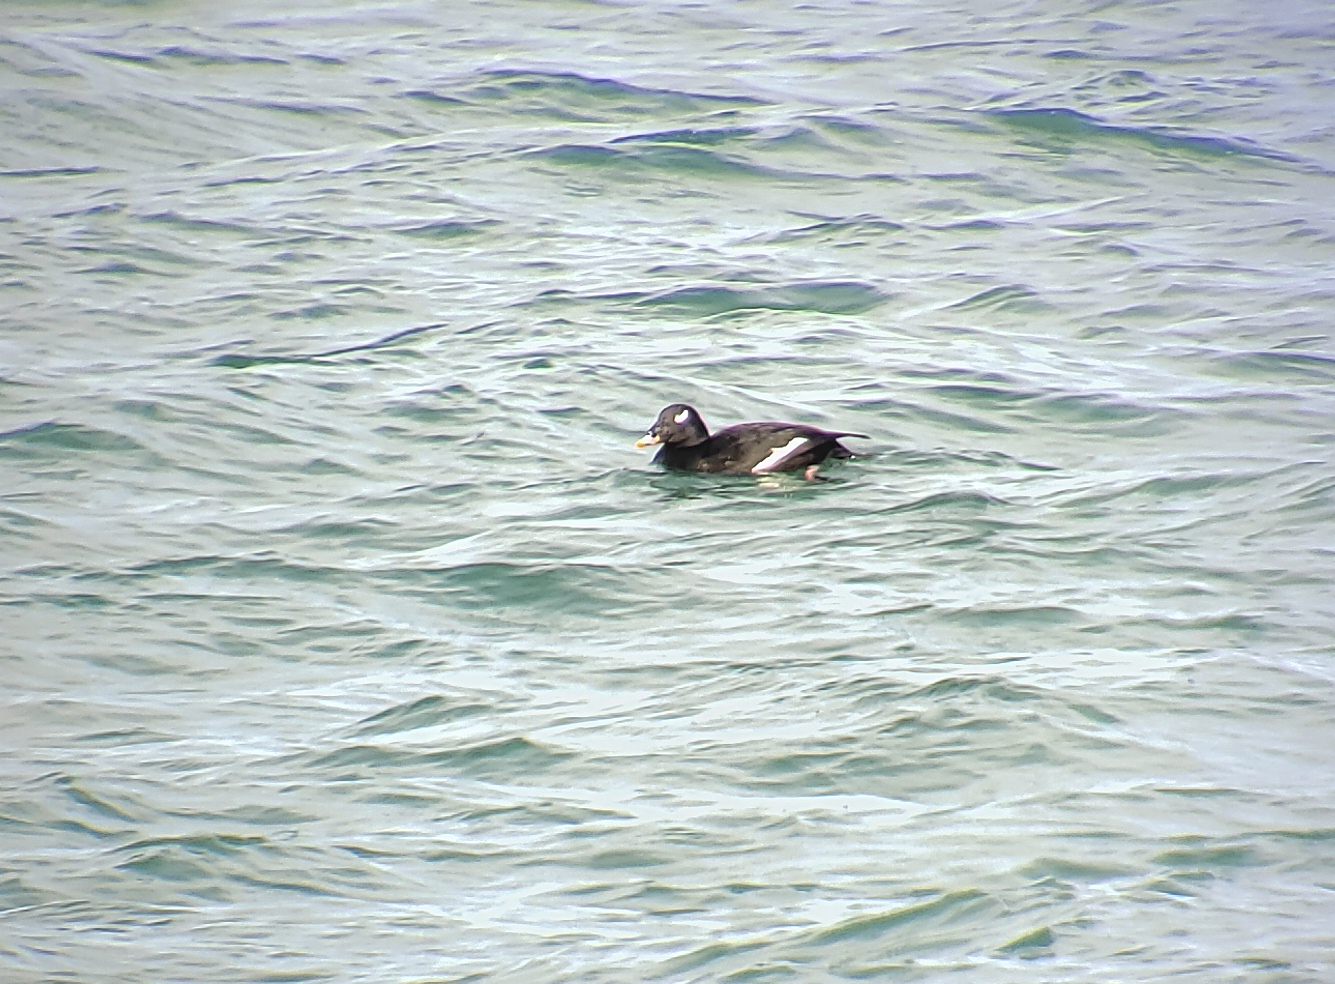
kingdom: Animalia
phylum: Chordata
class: Aves
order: Anseriformes
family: Anatidae
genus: Melanitta
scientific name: Melanitta deglandi
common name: White-winged scoter
